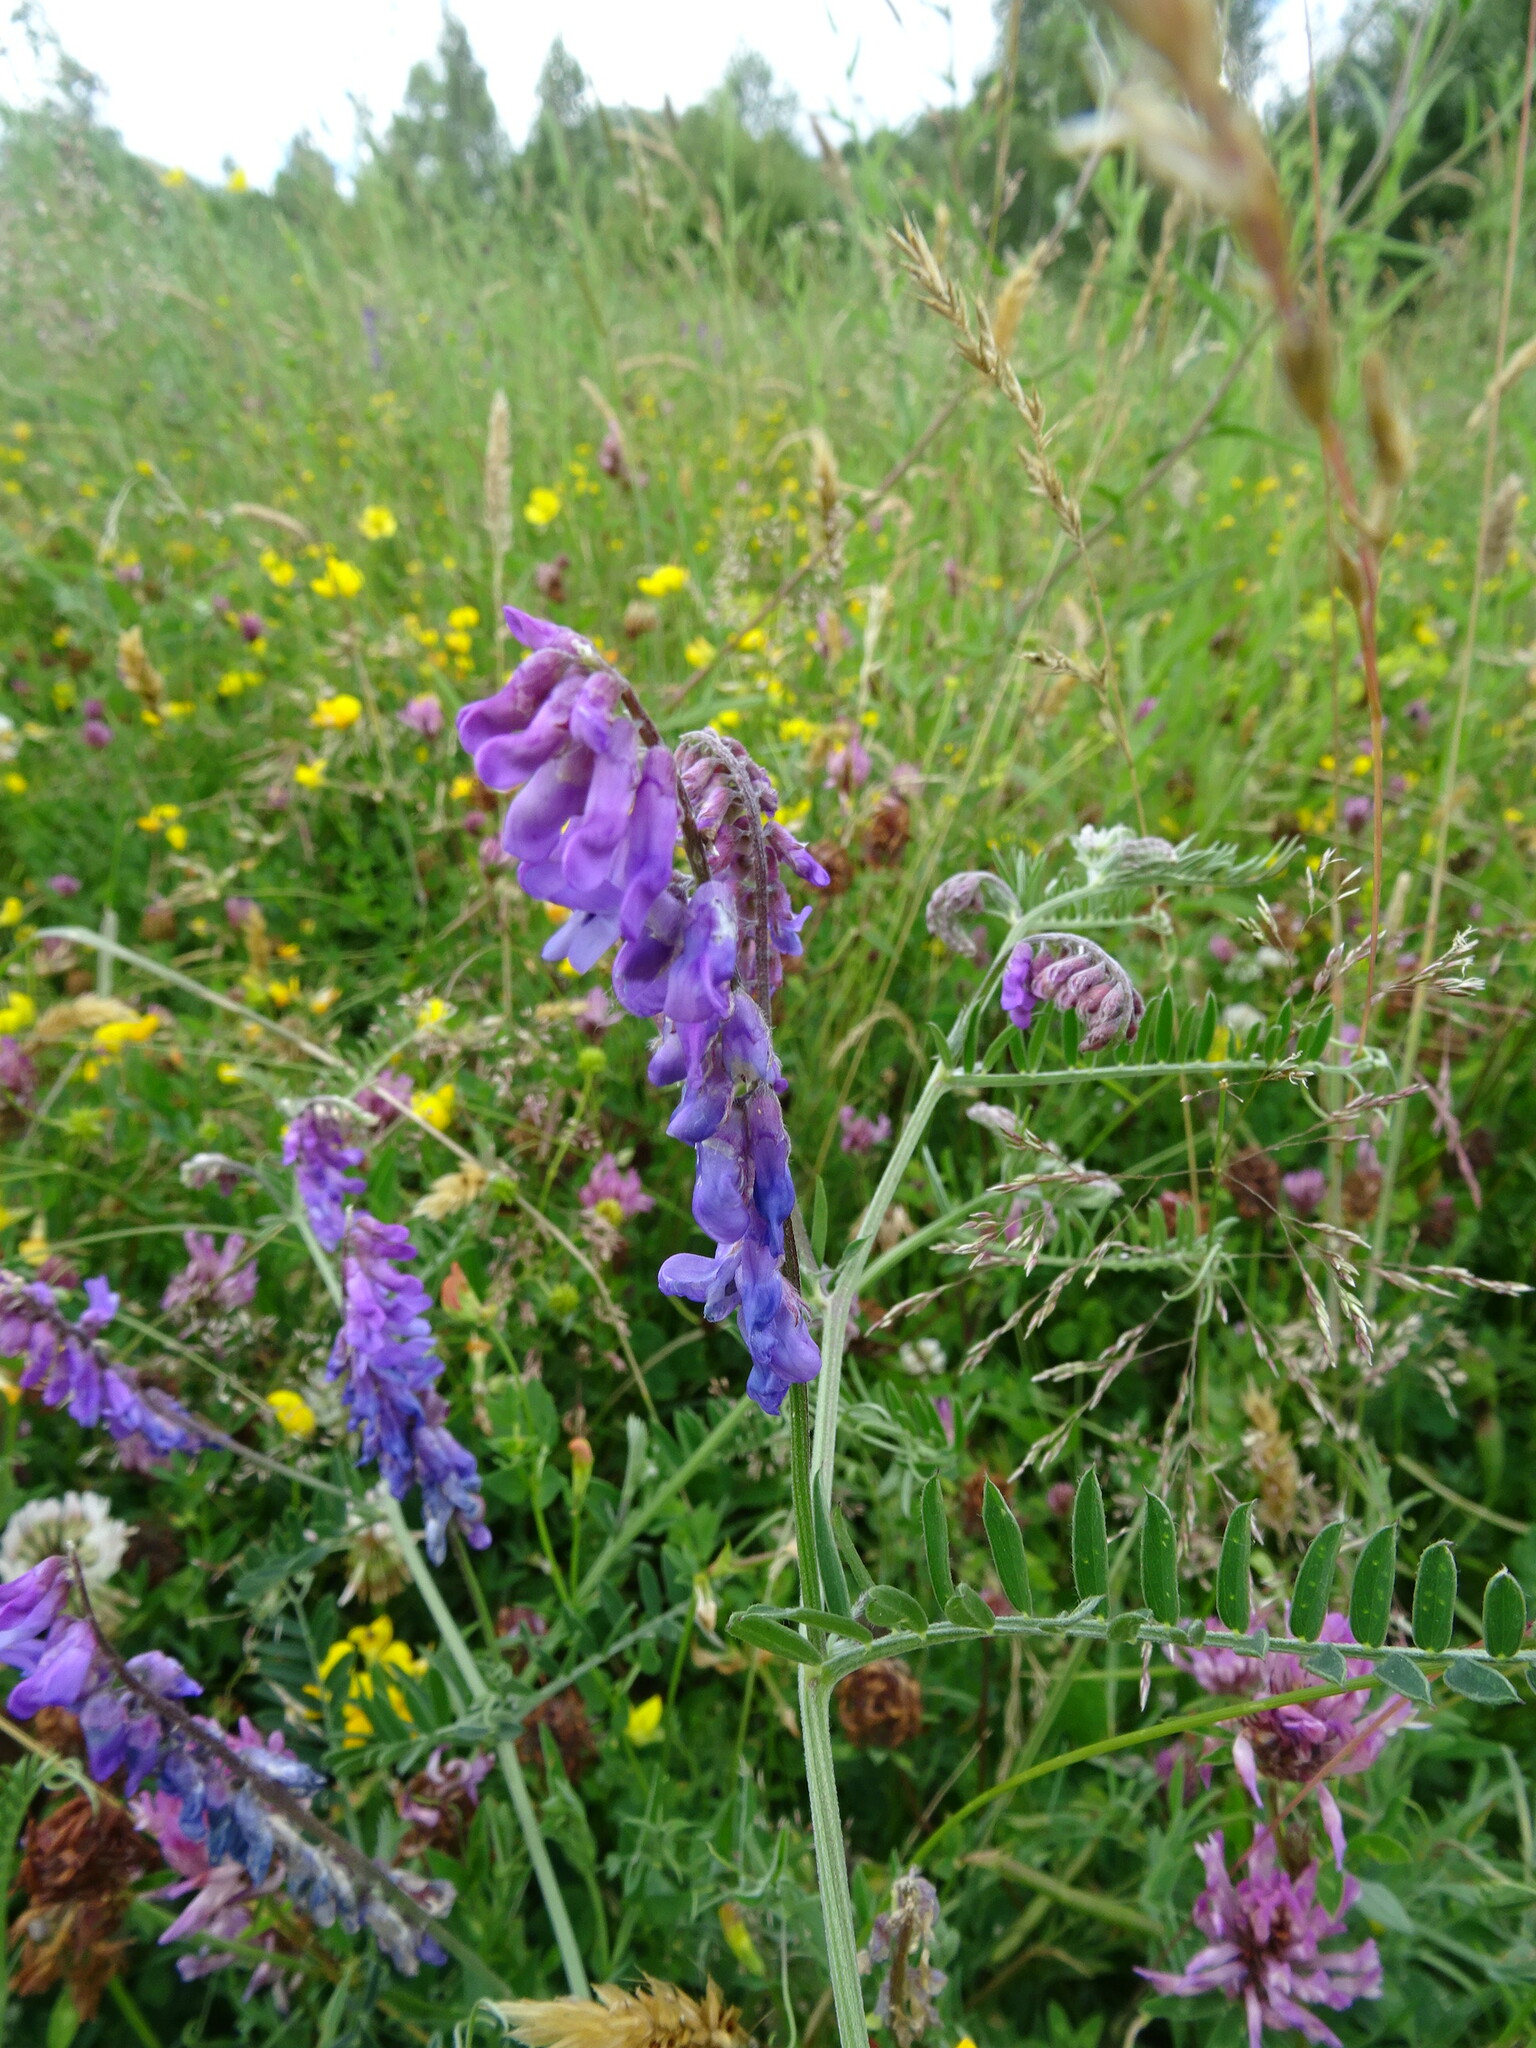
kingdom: Plantae
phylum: Tracheophyta
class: Magnoliopsida
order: Fabales
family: Fabaceae
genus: Vicia
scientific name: Vicia villosa
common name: Fodder vetch
